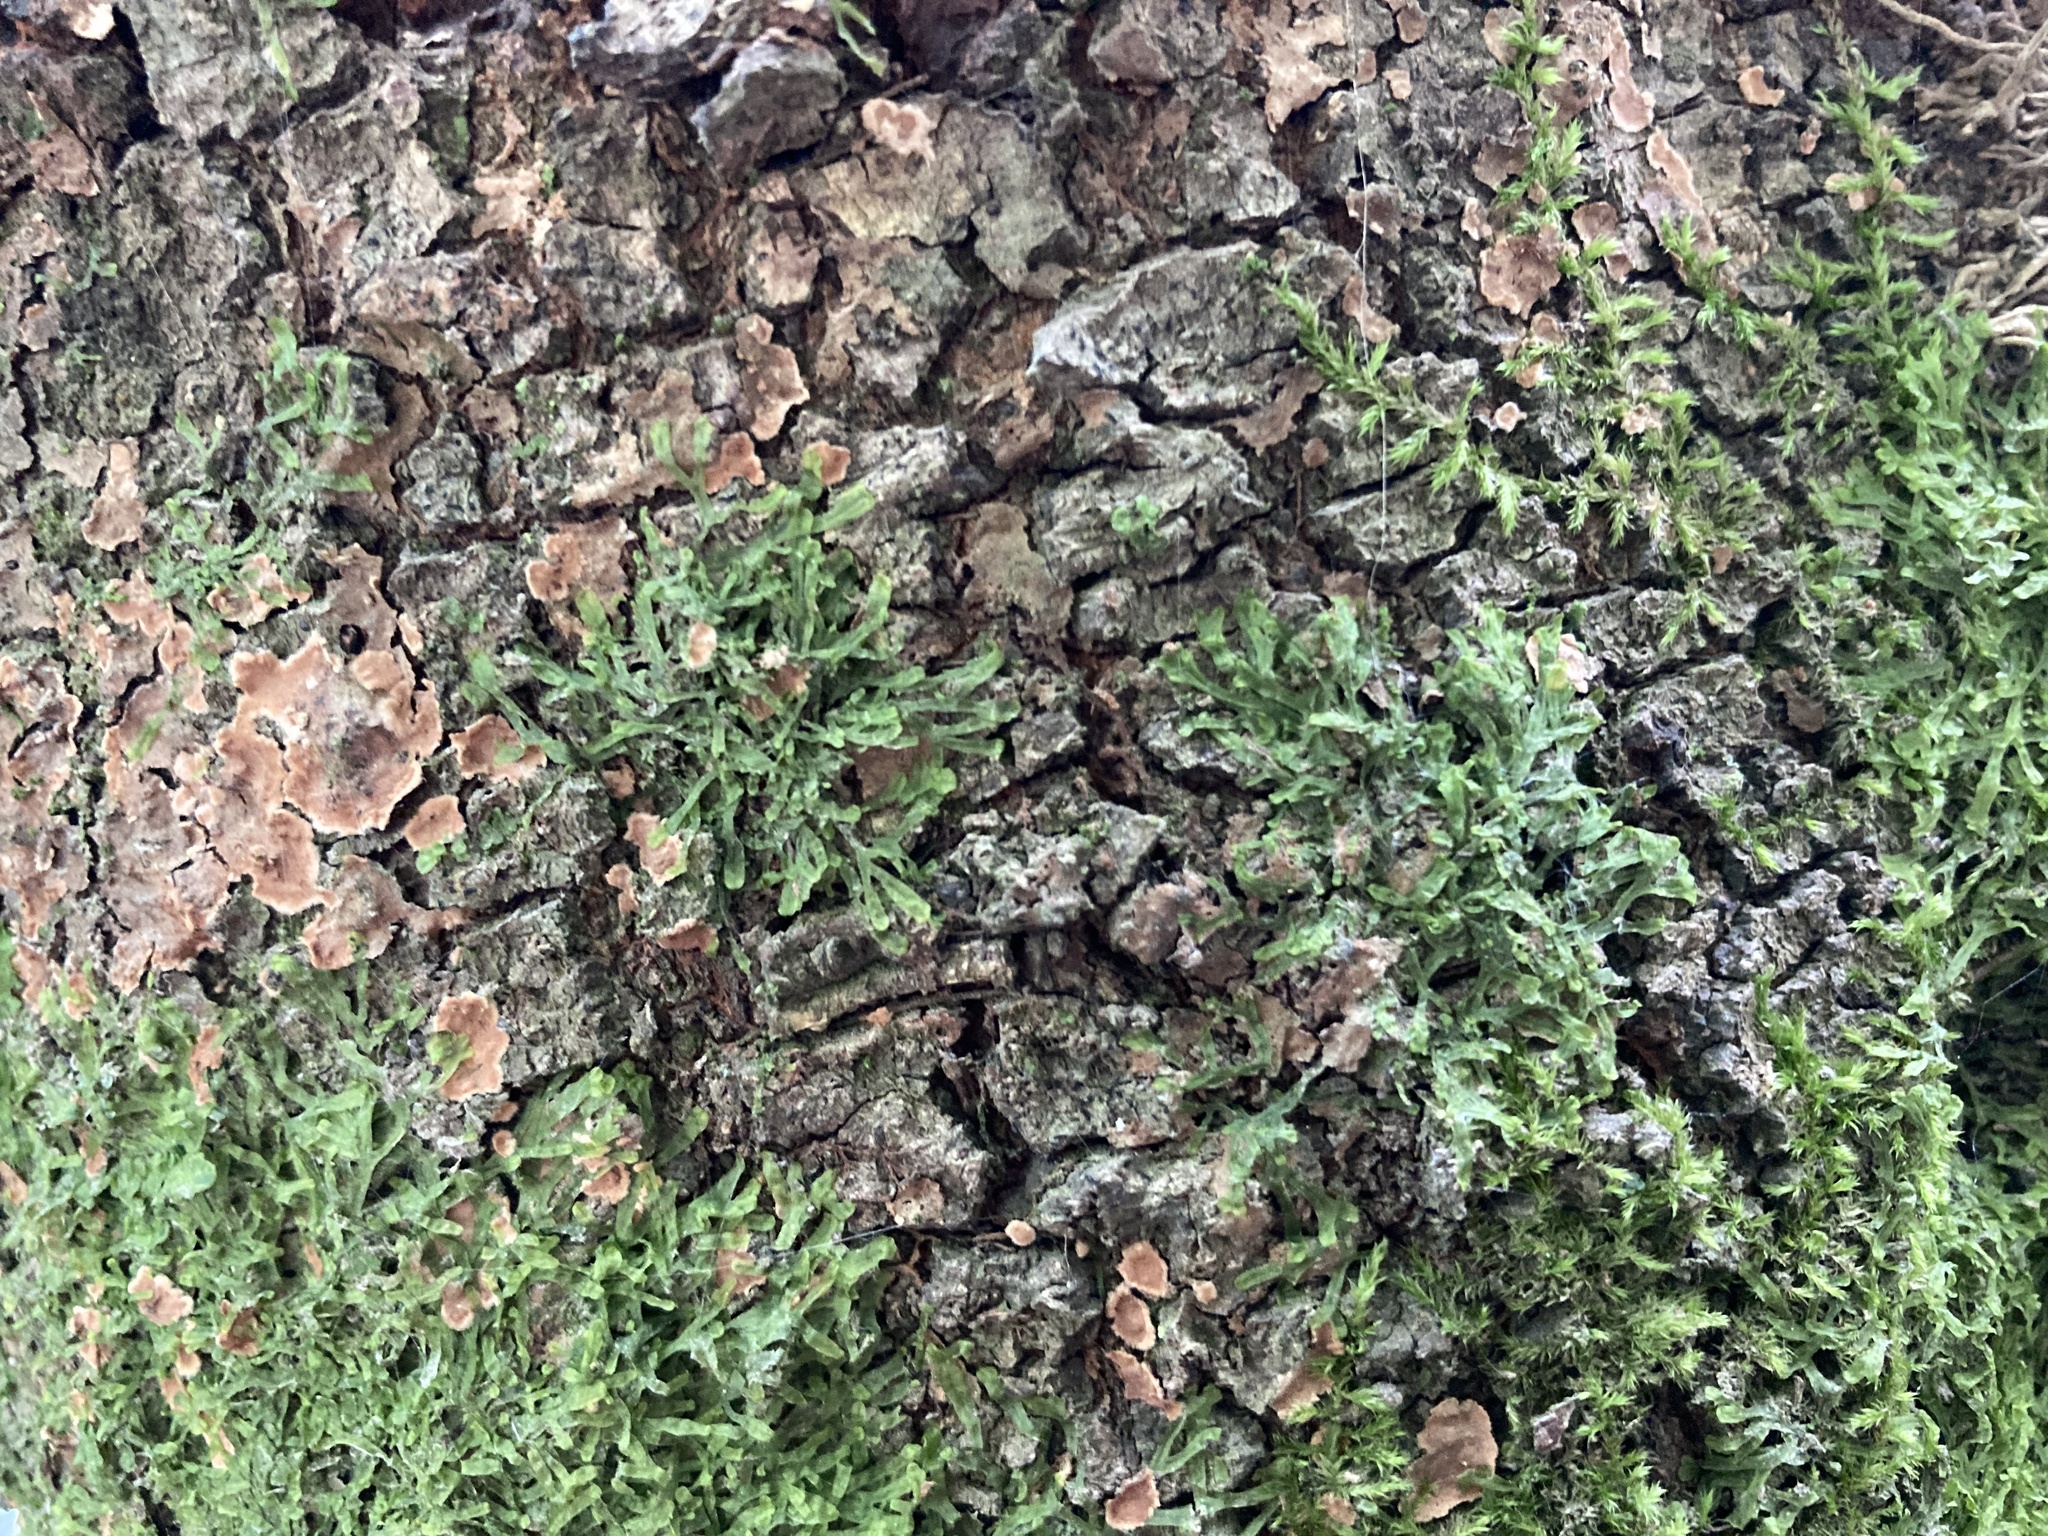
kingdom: Plantae
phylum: Marchantiophyta
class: Jungermanniopsida
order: Metzgeriales
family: Metzgeriaceae
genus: Metzgeria
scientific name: Metzgeria furcata
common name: Forked veilwort
